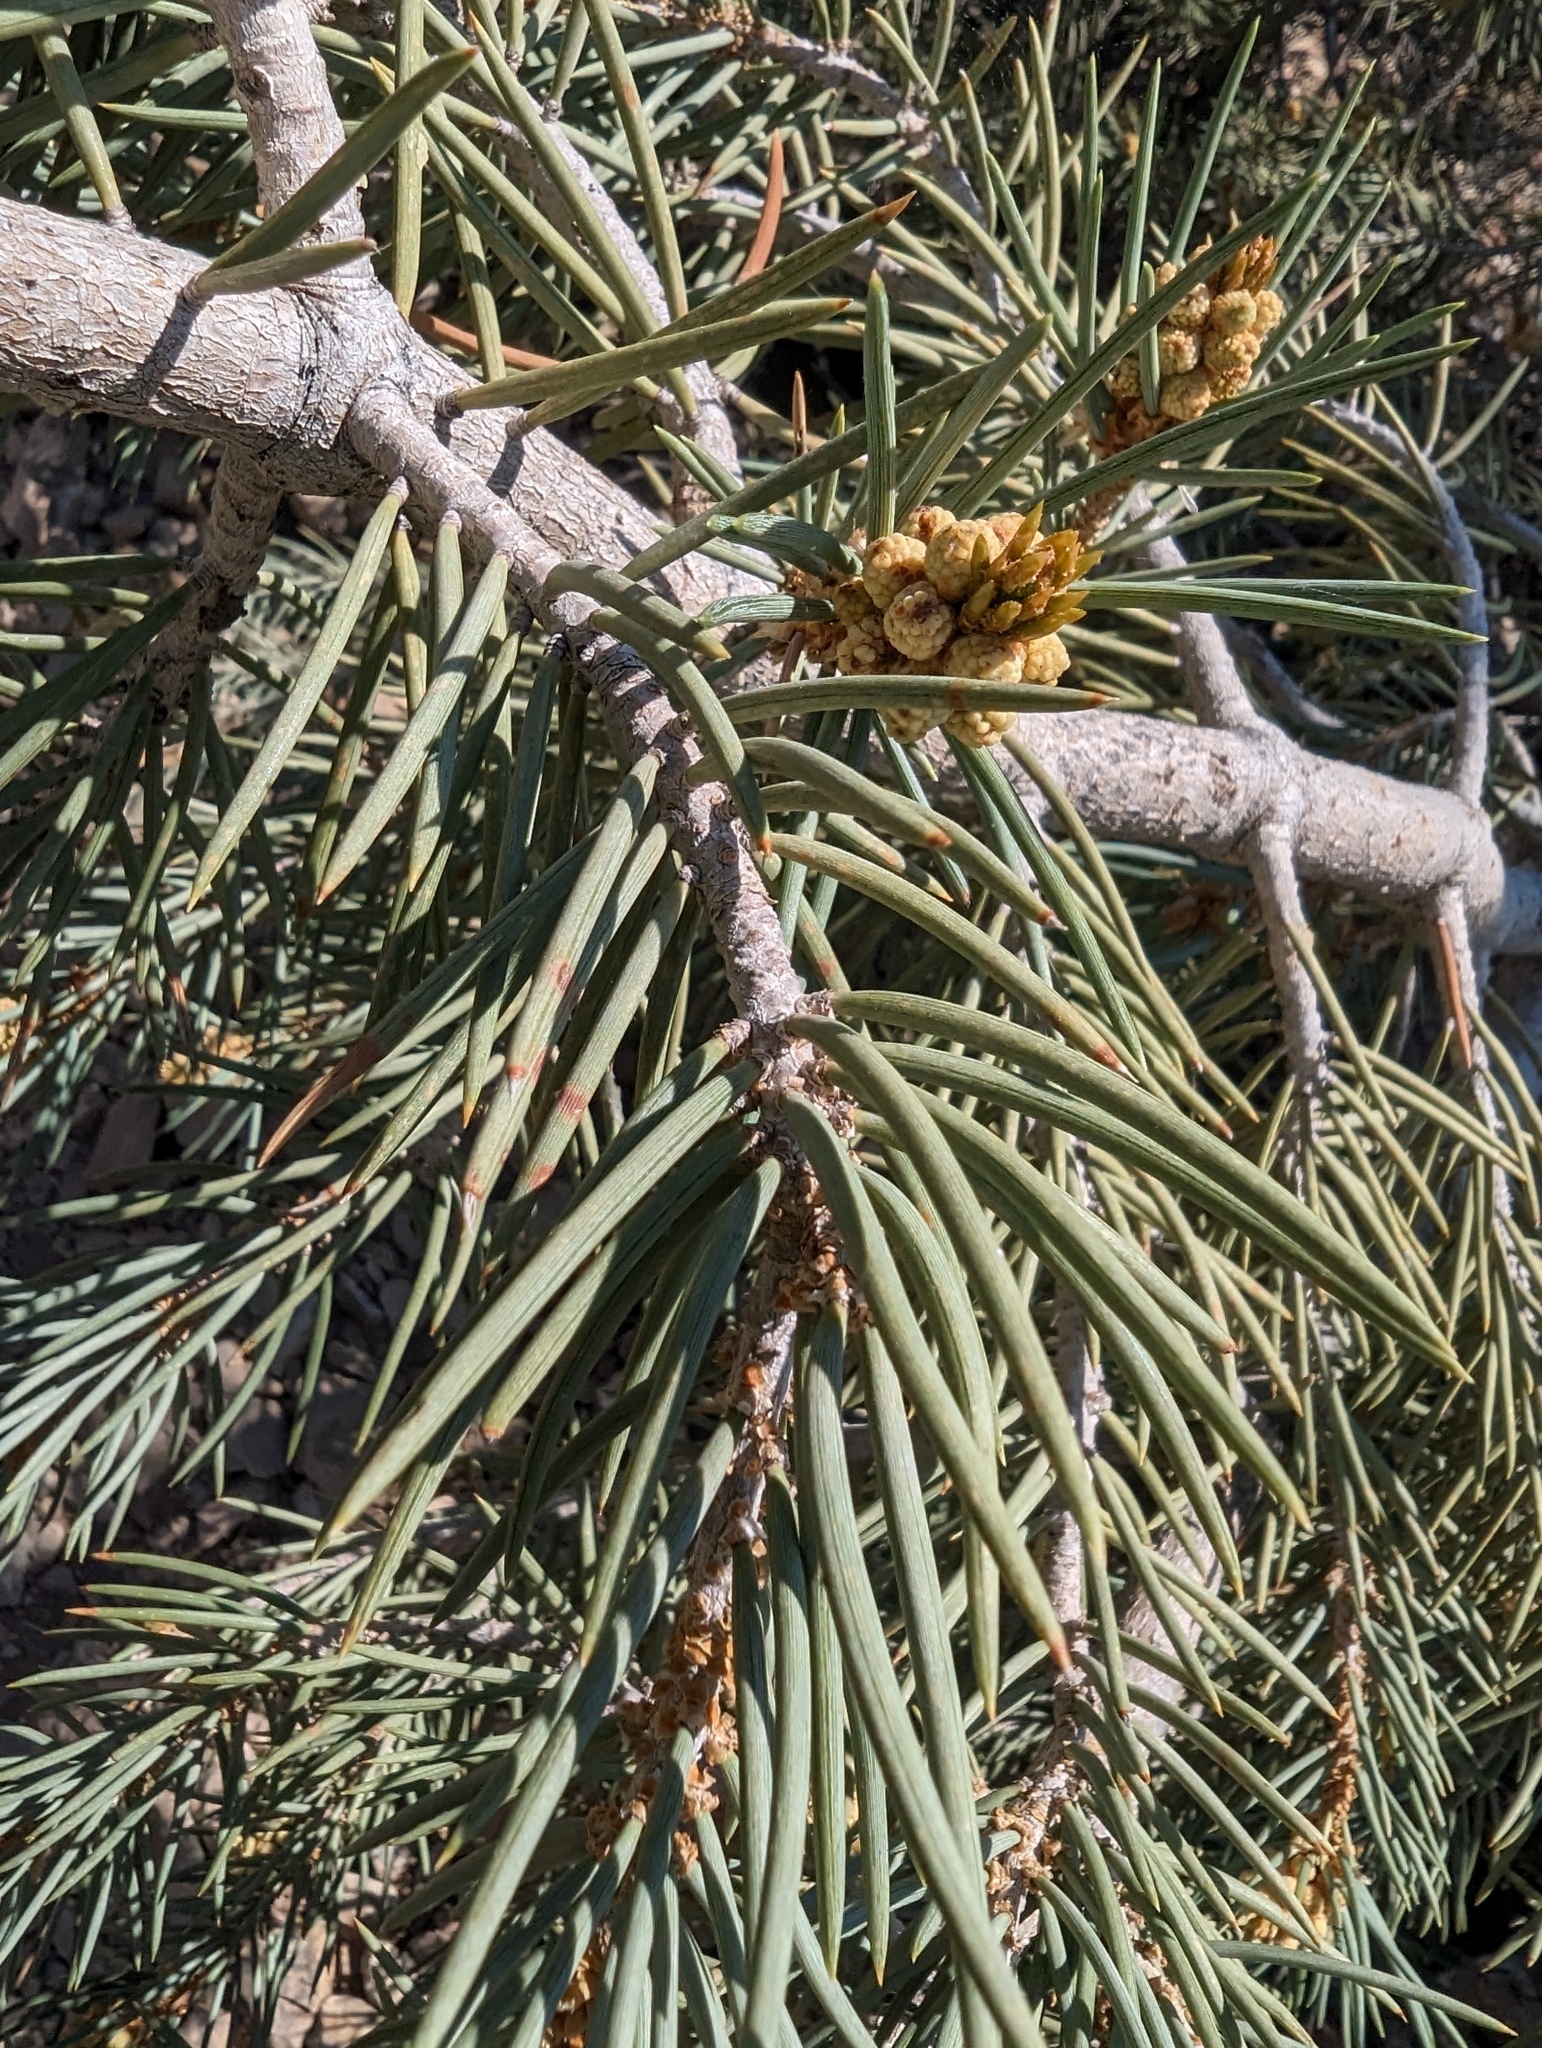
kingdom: Plantae
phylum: Tracheophyta
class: Pinopsida
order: Pinales
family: Pinaceae
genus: Pinus
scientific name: Pinus monophylla
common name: One-leaved nut pine
